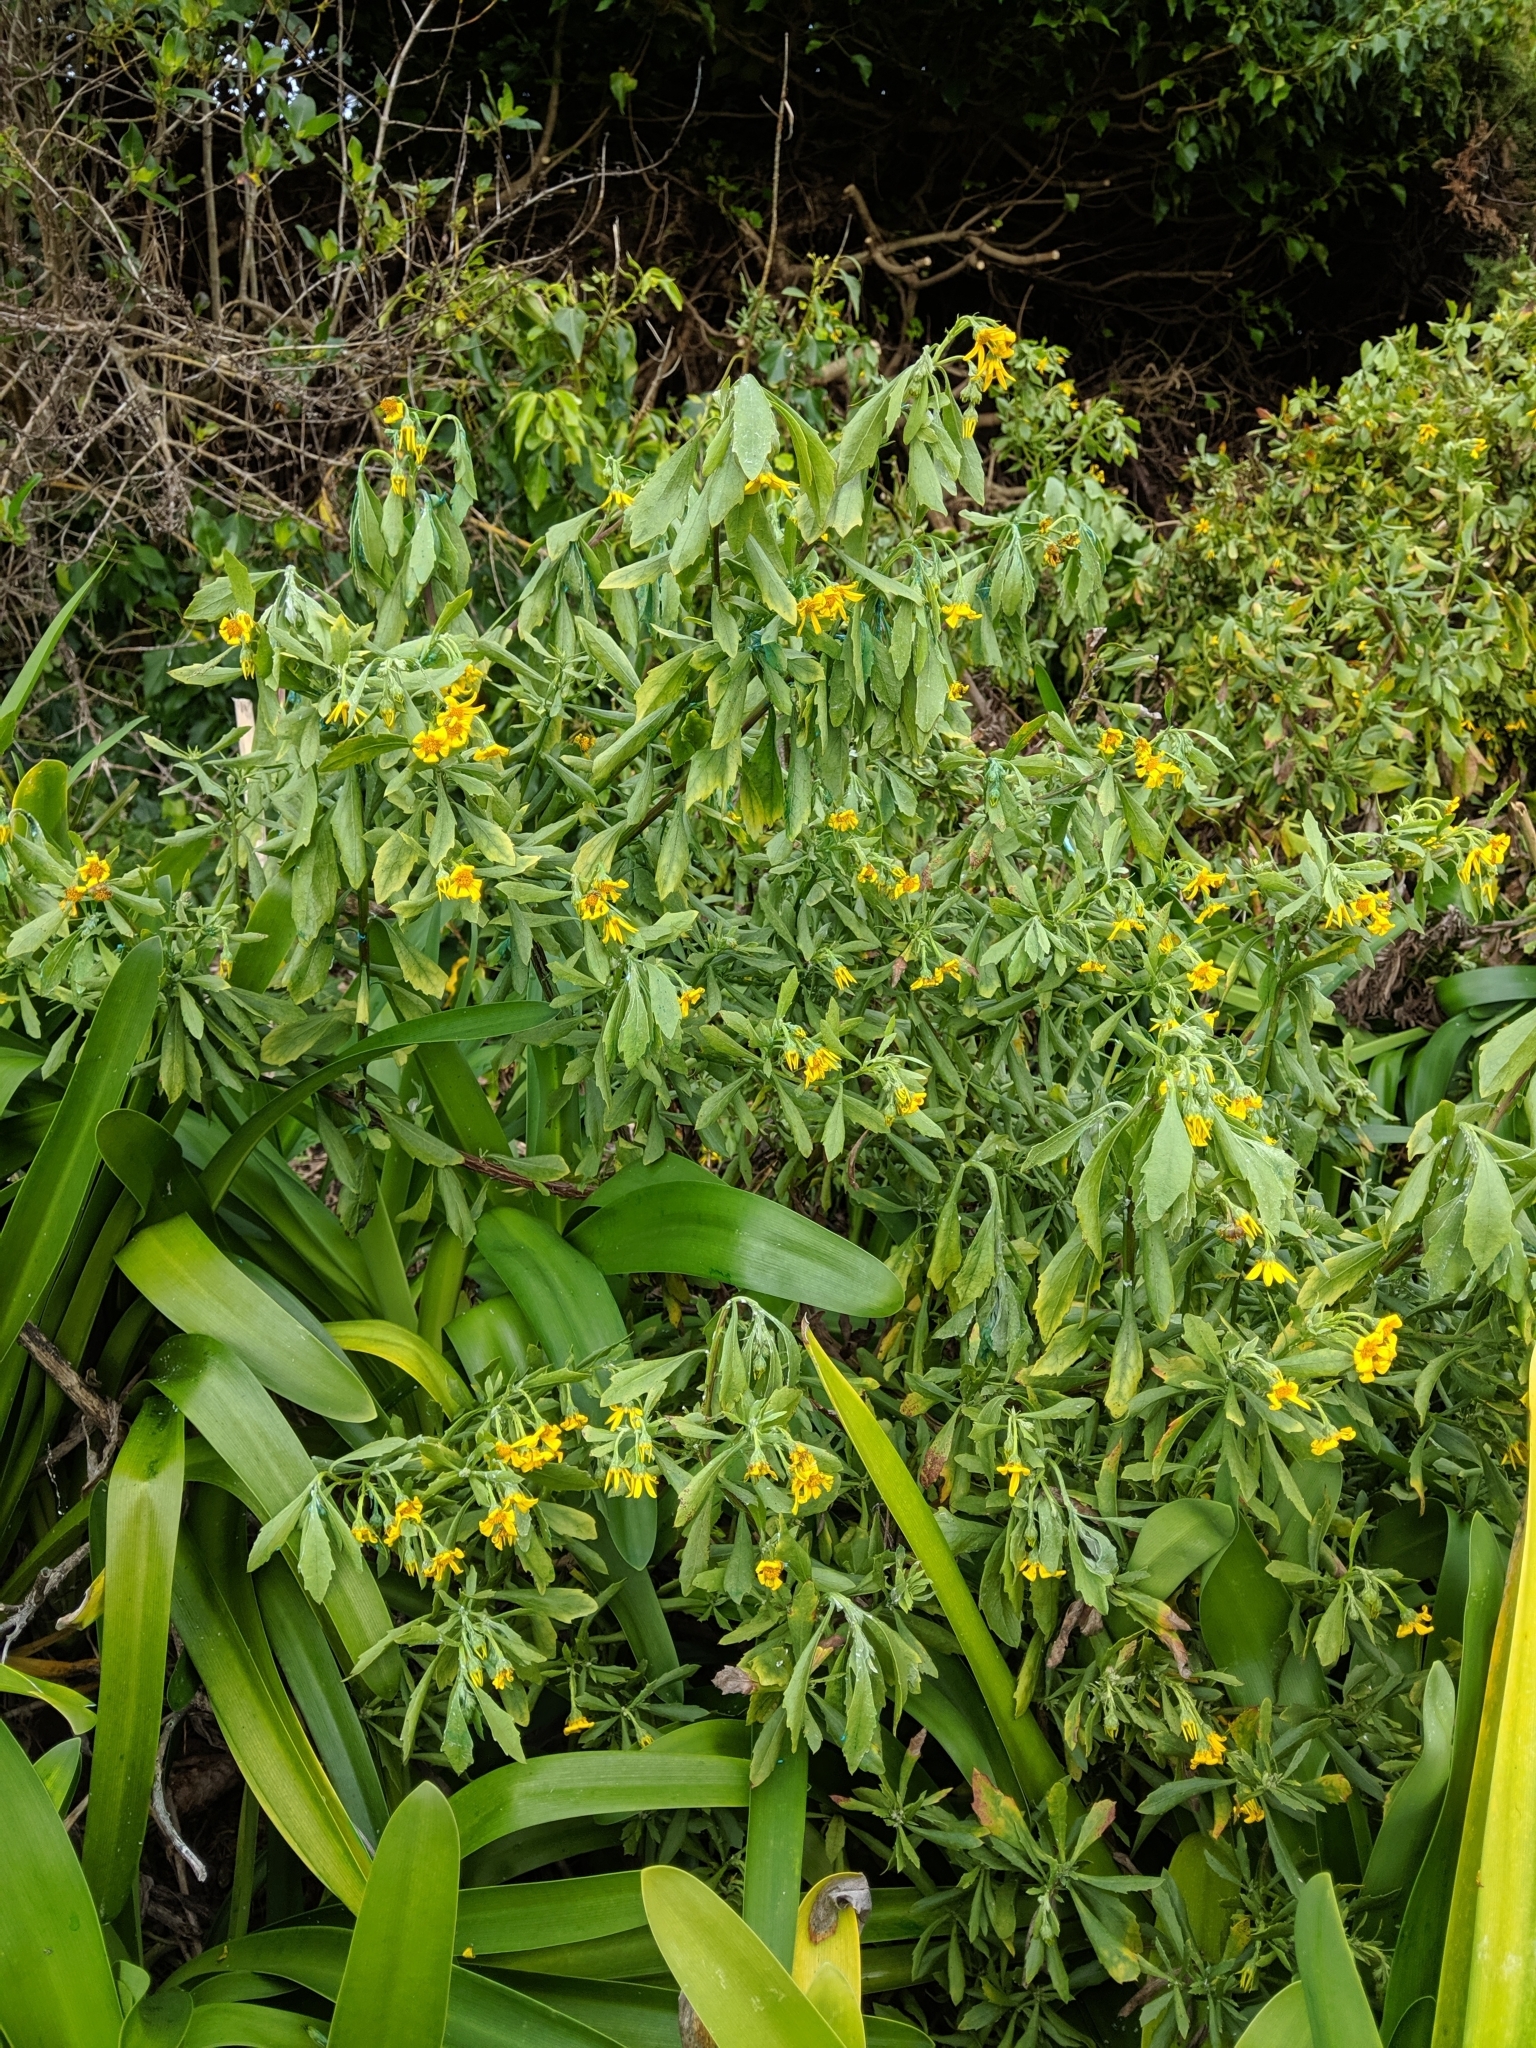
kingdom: Plantae
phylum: Tracheophyta
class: Magnoliopsida
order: Asterales
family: Asteraceae
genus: Osteospermum
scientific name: Osteospermum moniliferum
